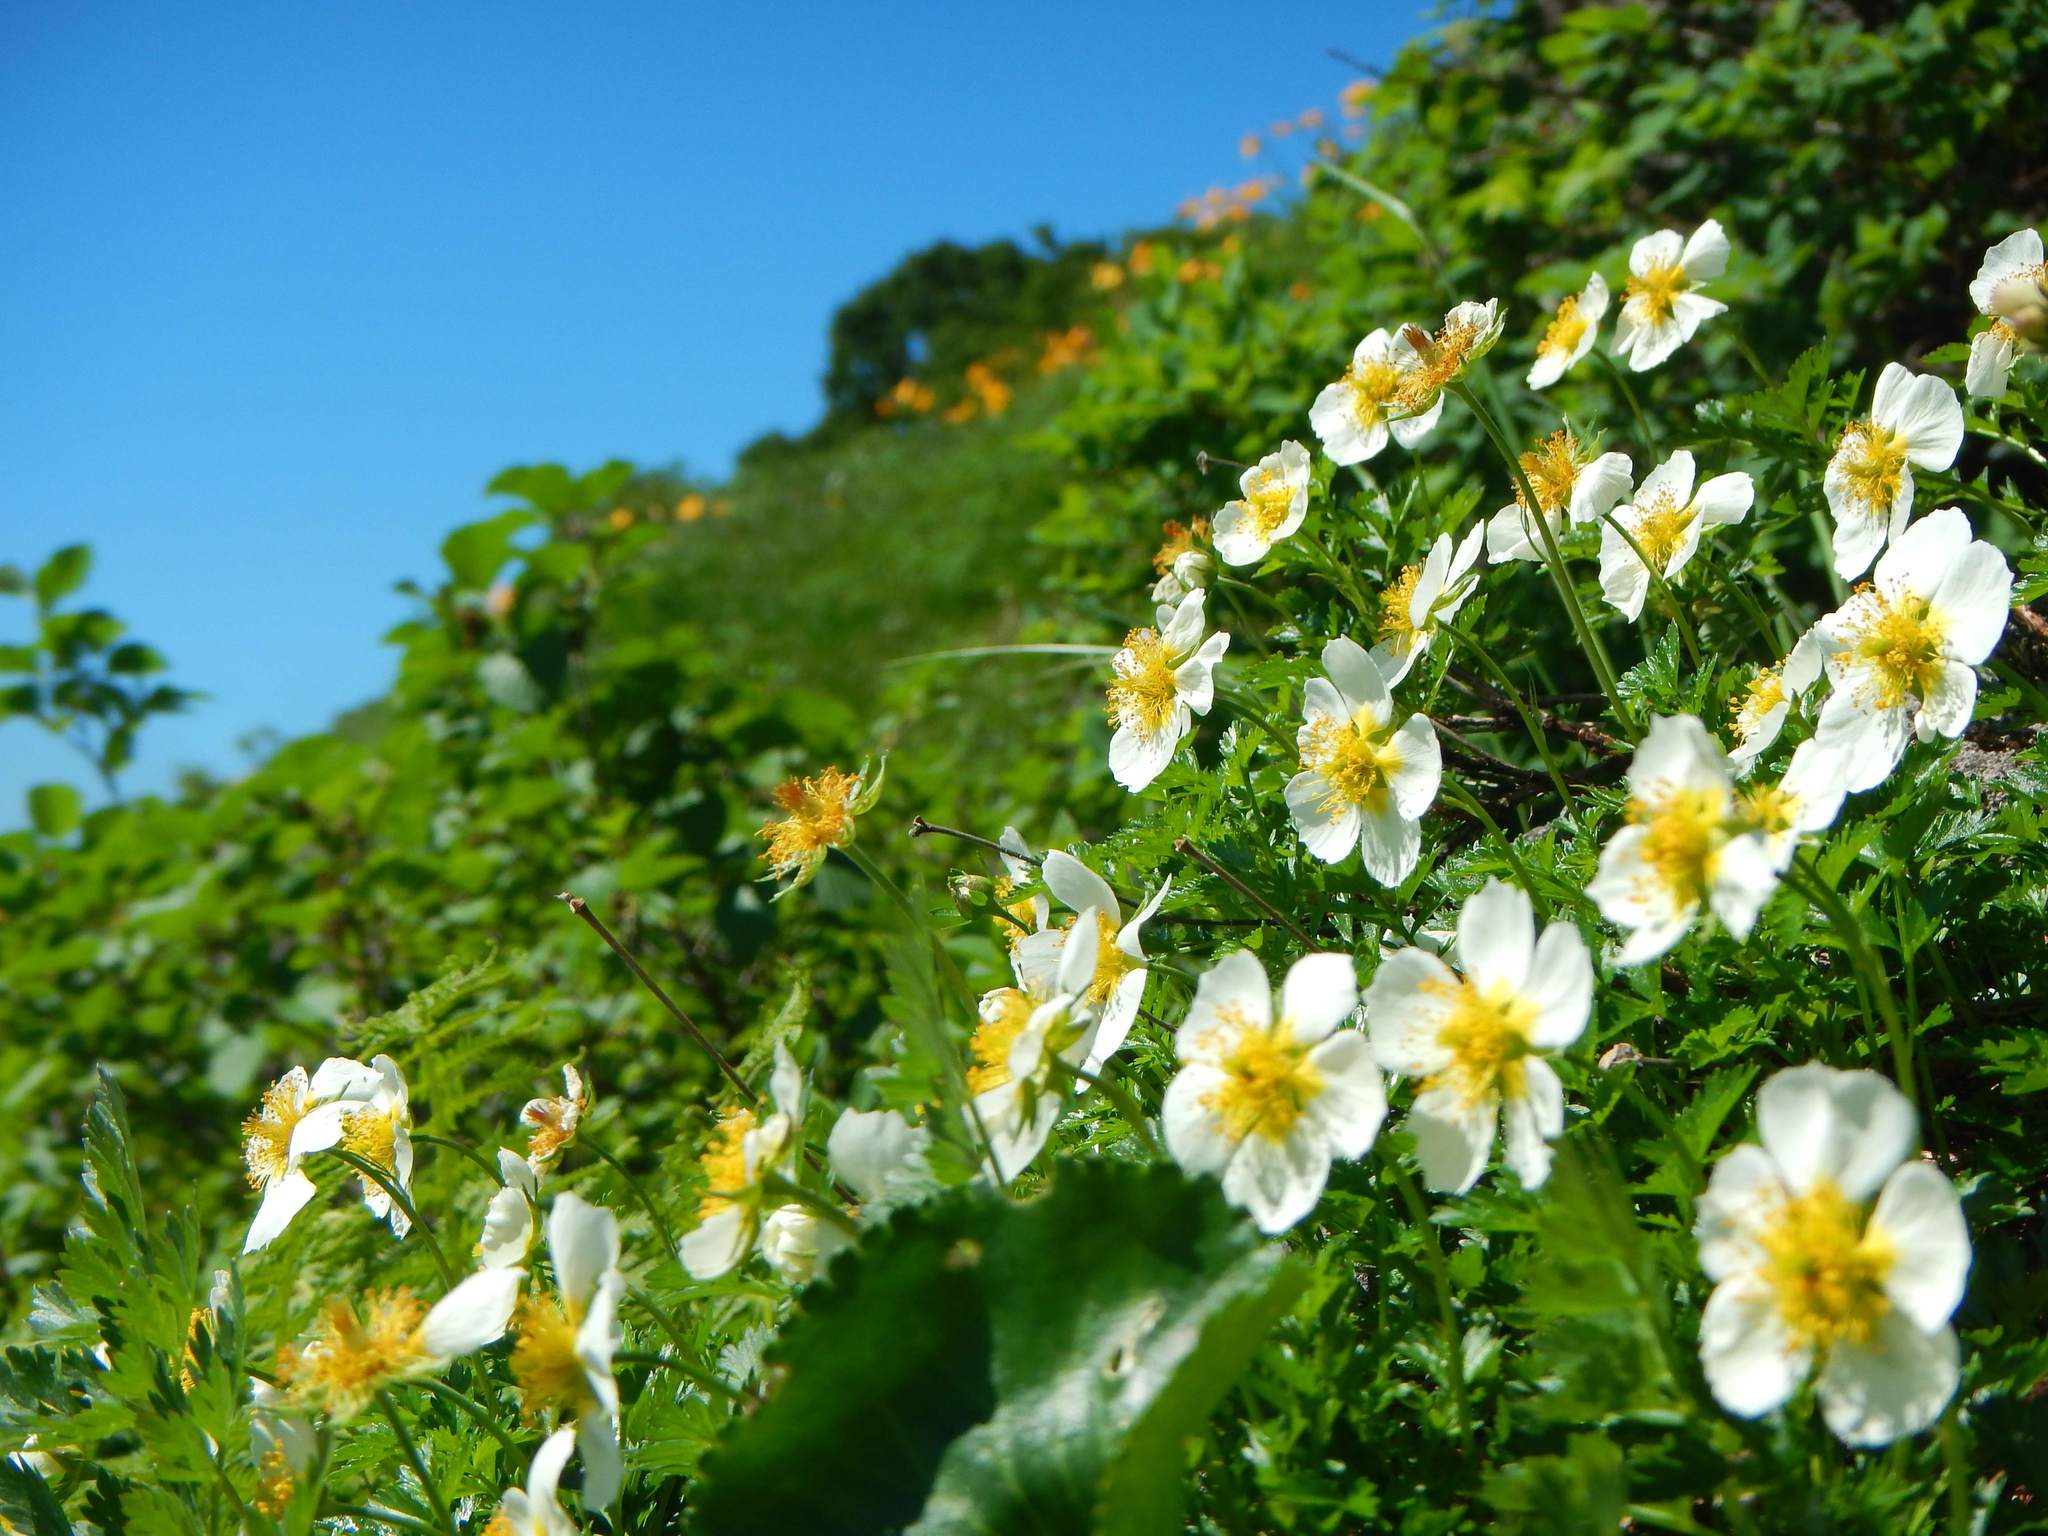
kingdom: Plantae
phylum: Tracheophyta
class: Magnoliopsida
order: Rosales
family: Rosaceae
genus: Geum
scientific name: Geum pentapetalum
